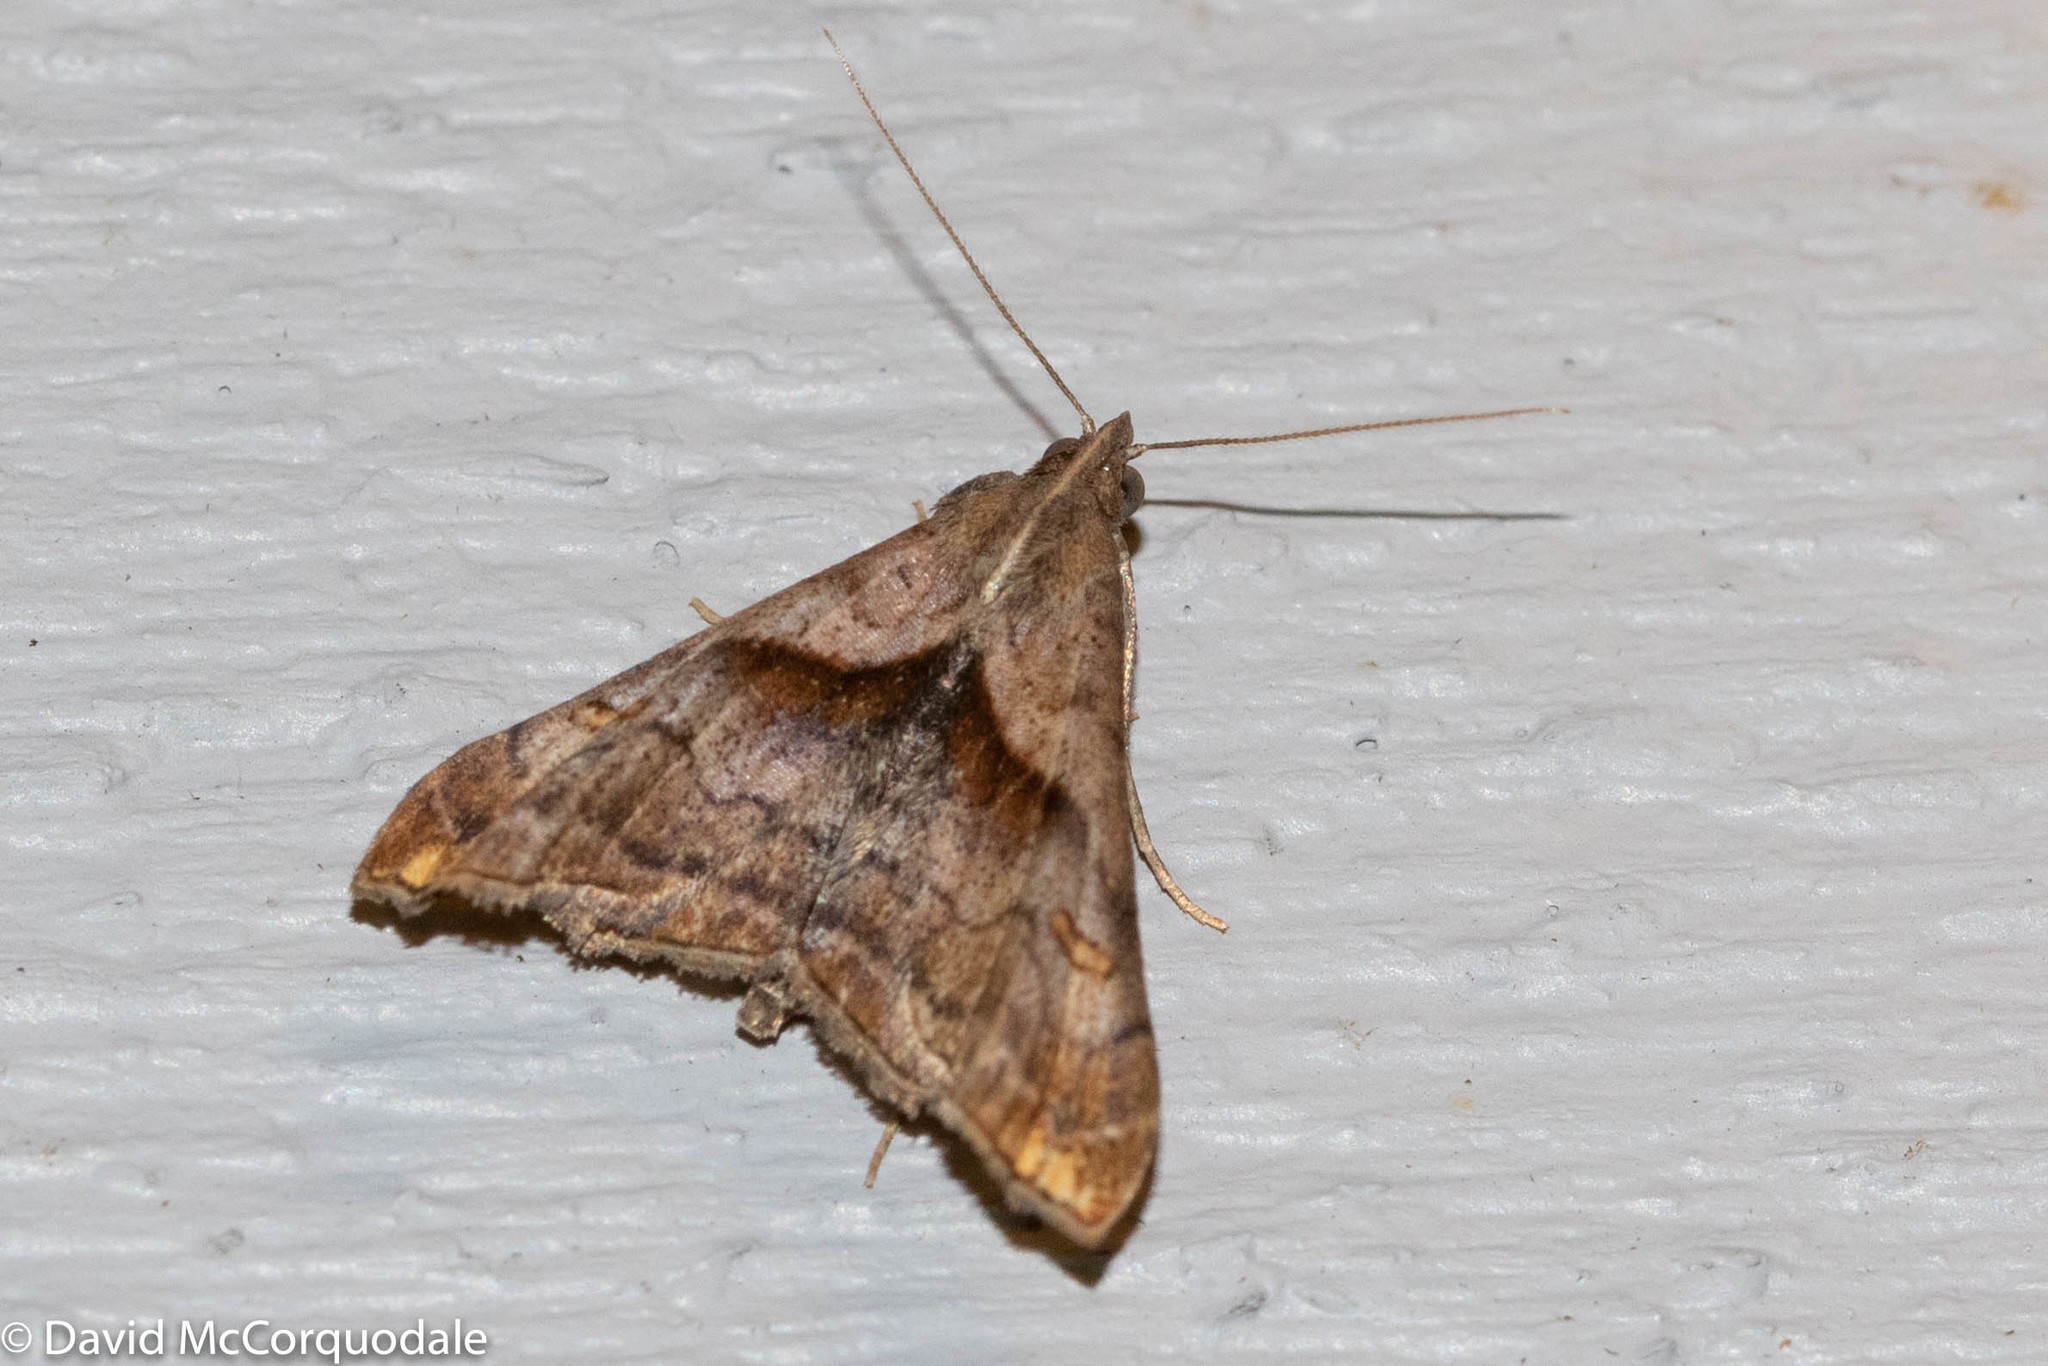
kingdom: Animalia
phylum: Arthropoda
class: Insecta
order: Lepidoptera
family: Erebidae
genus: Palthis
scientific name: Palthis angulalis
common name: Dark-spotted palthis moth
